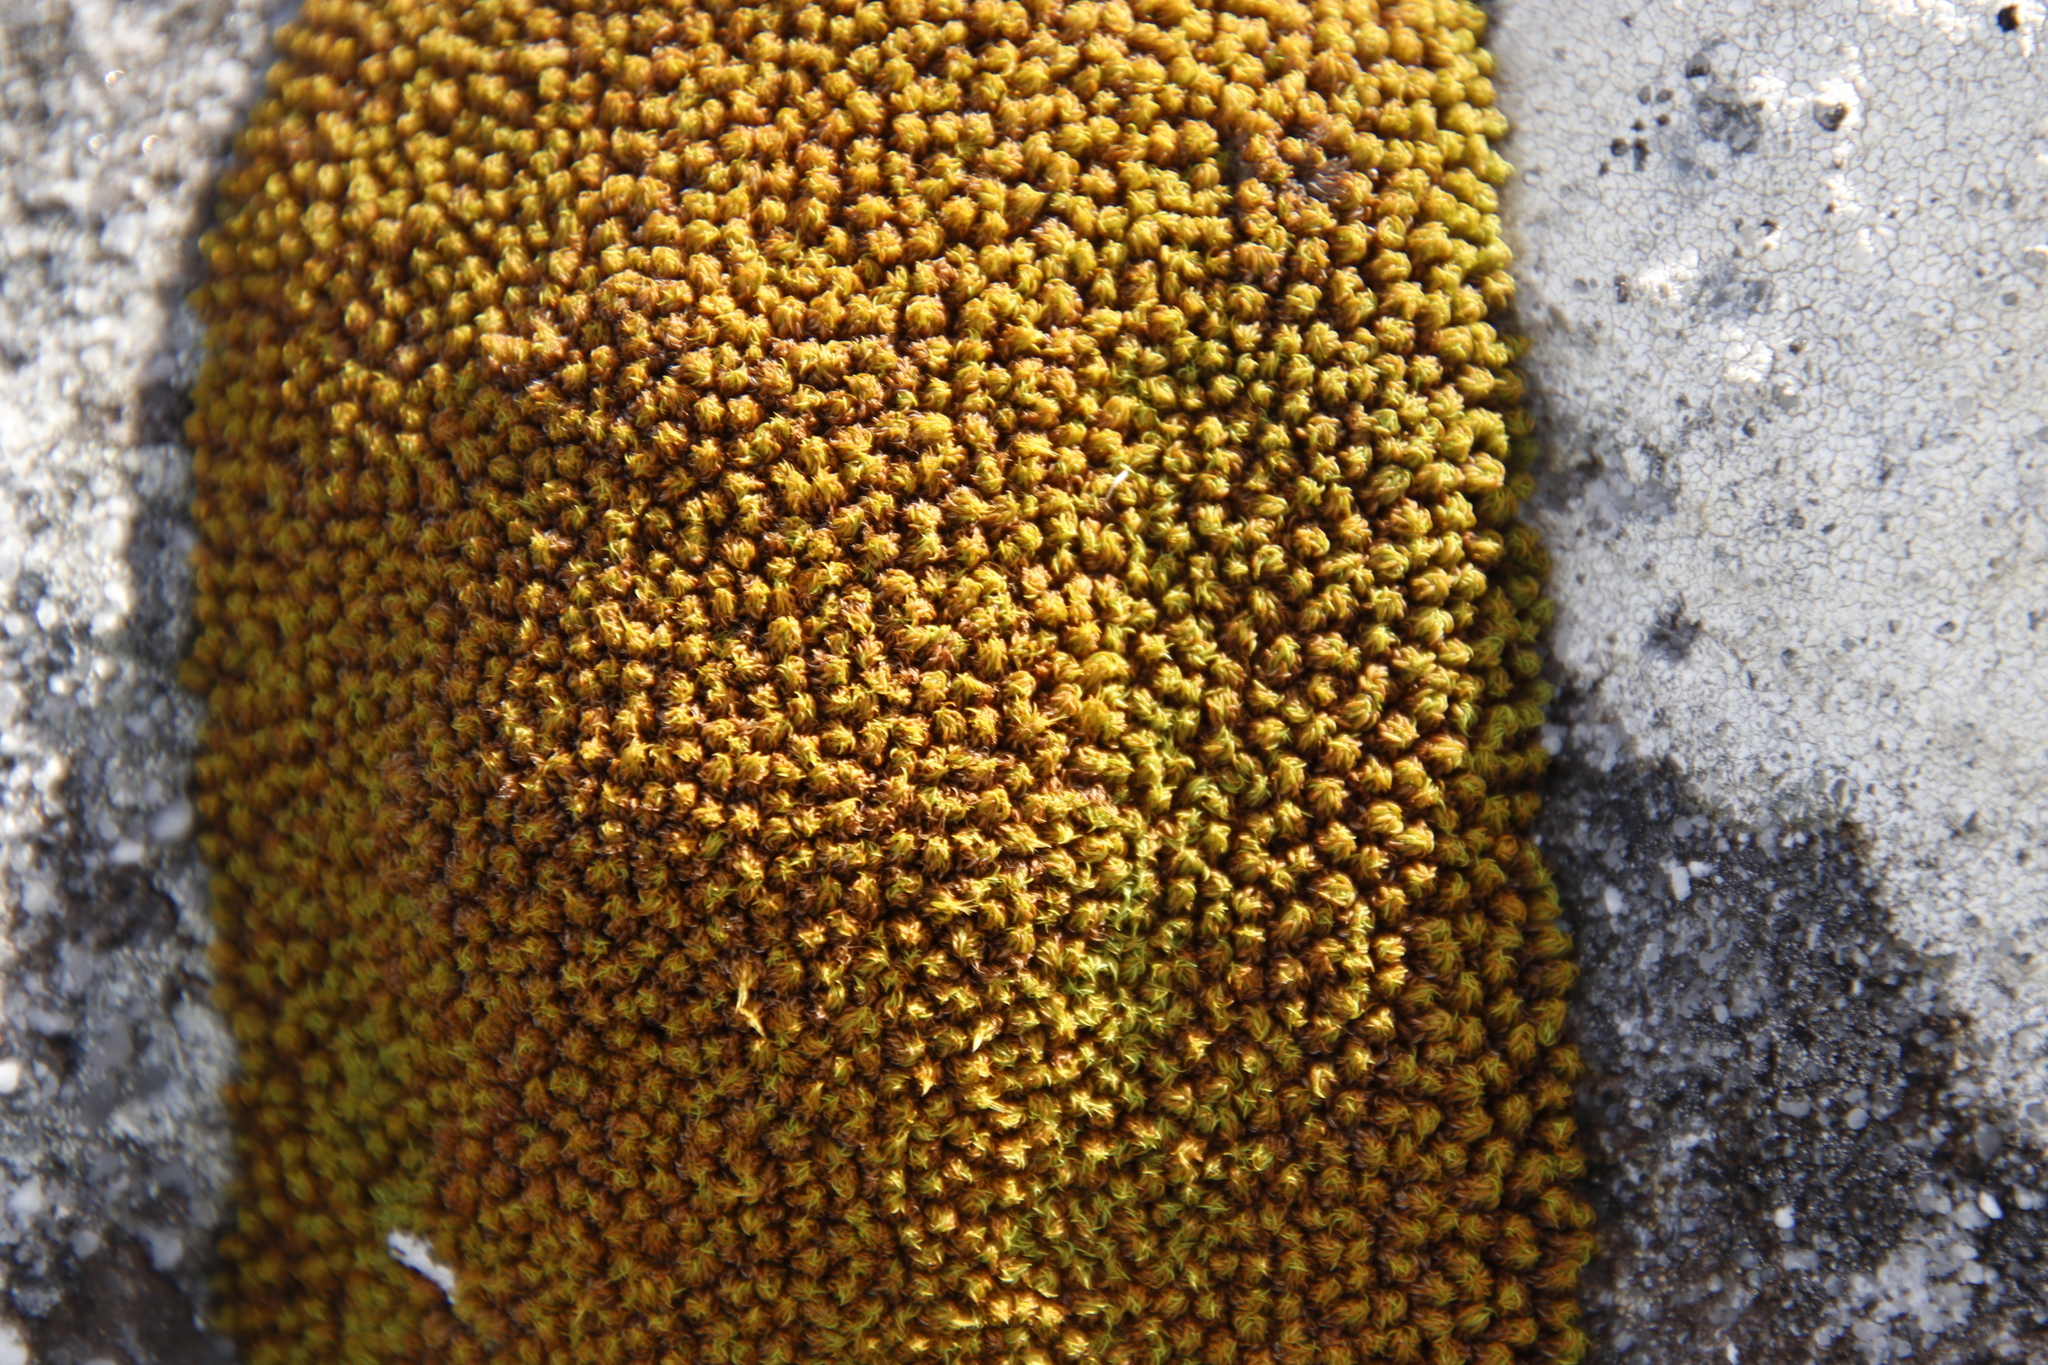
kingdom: Plantae
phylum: Bryophyta
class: Bryopsida
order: Dicranales
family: Hypodontiaceae
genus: Hypodontium
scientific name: Hypodontium pomiforme
